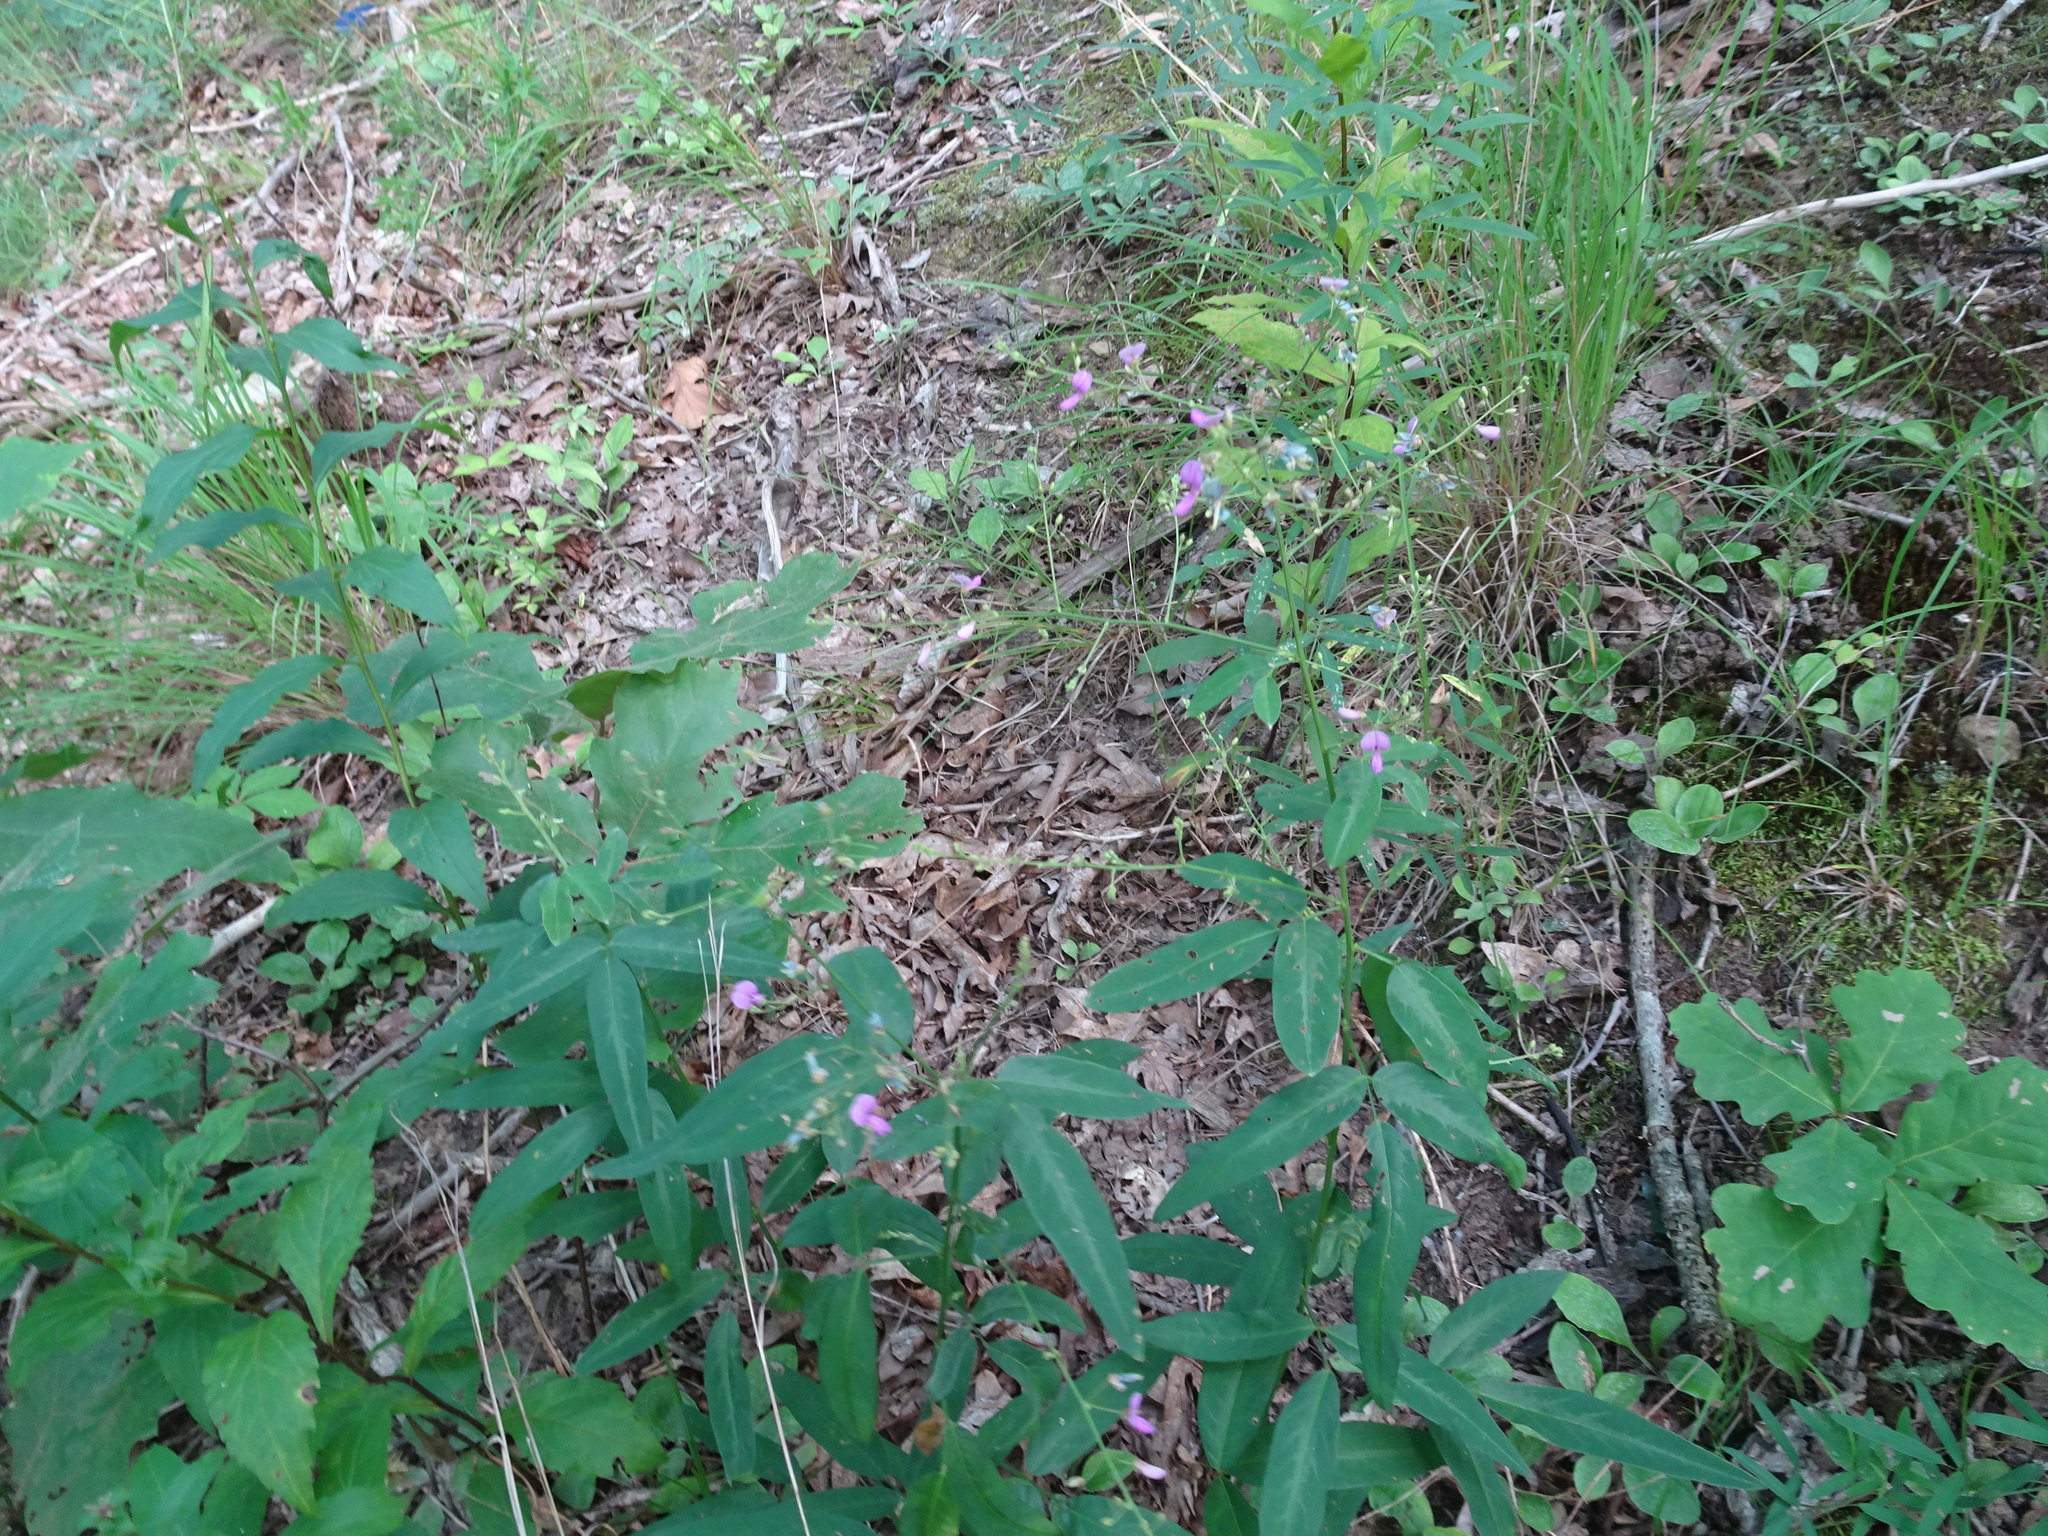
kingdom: Plantae
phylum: Tracheophyta
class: Magnoliopsida
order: Fabales
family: Fabaceae
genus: Desmodium
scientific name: Desmodium paniculatum
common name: Panicled tick-clover
